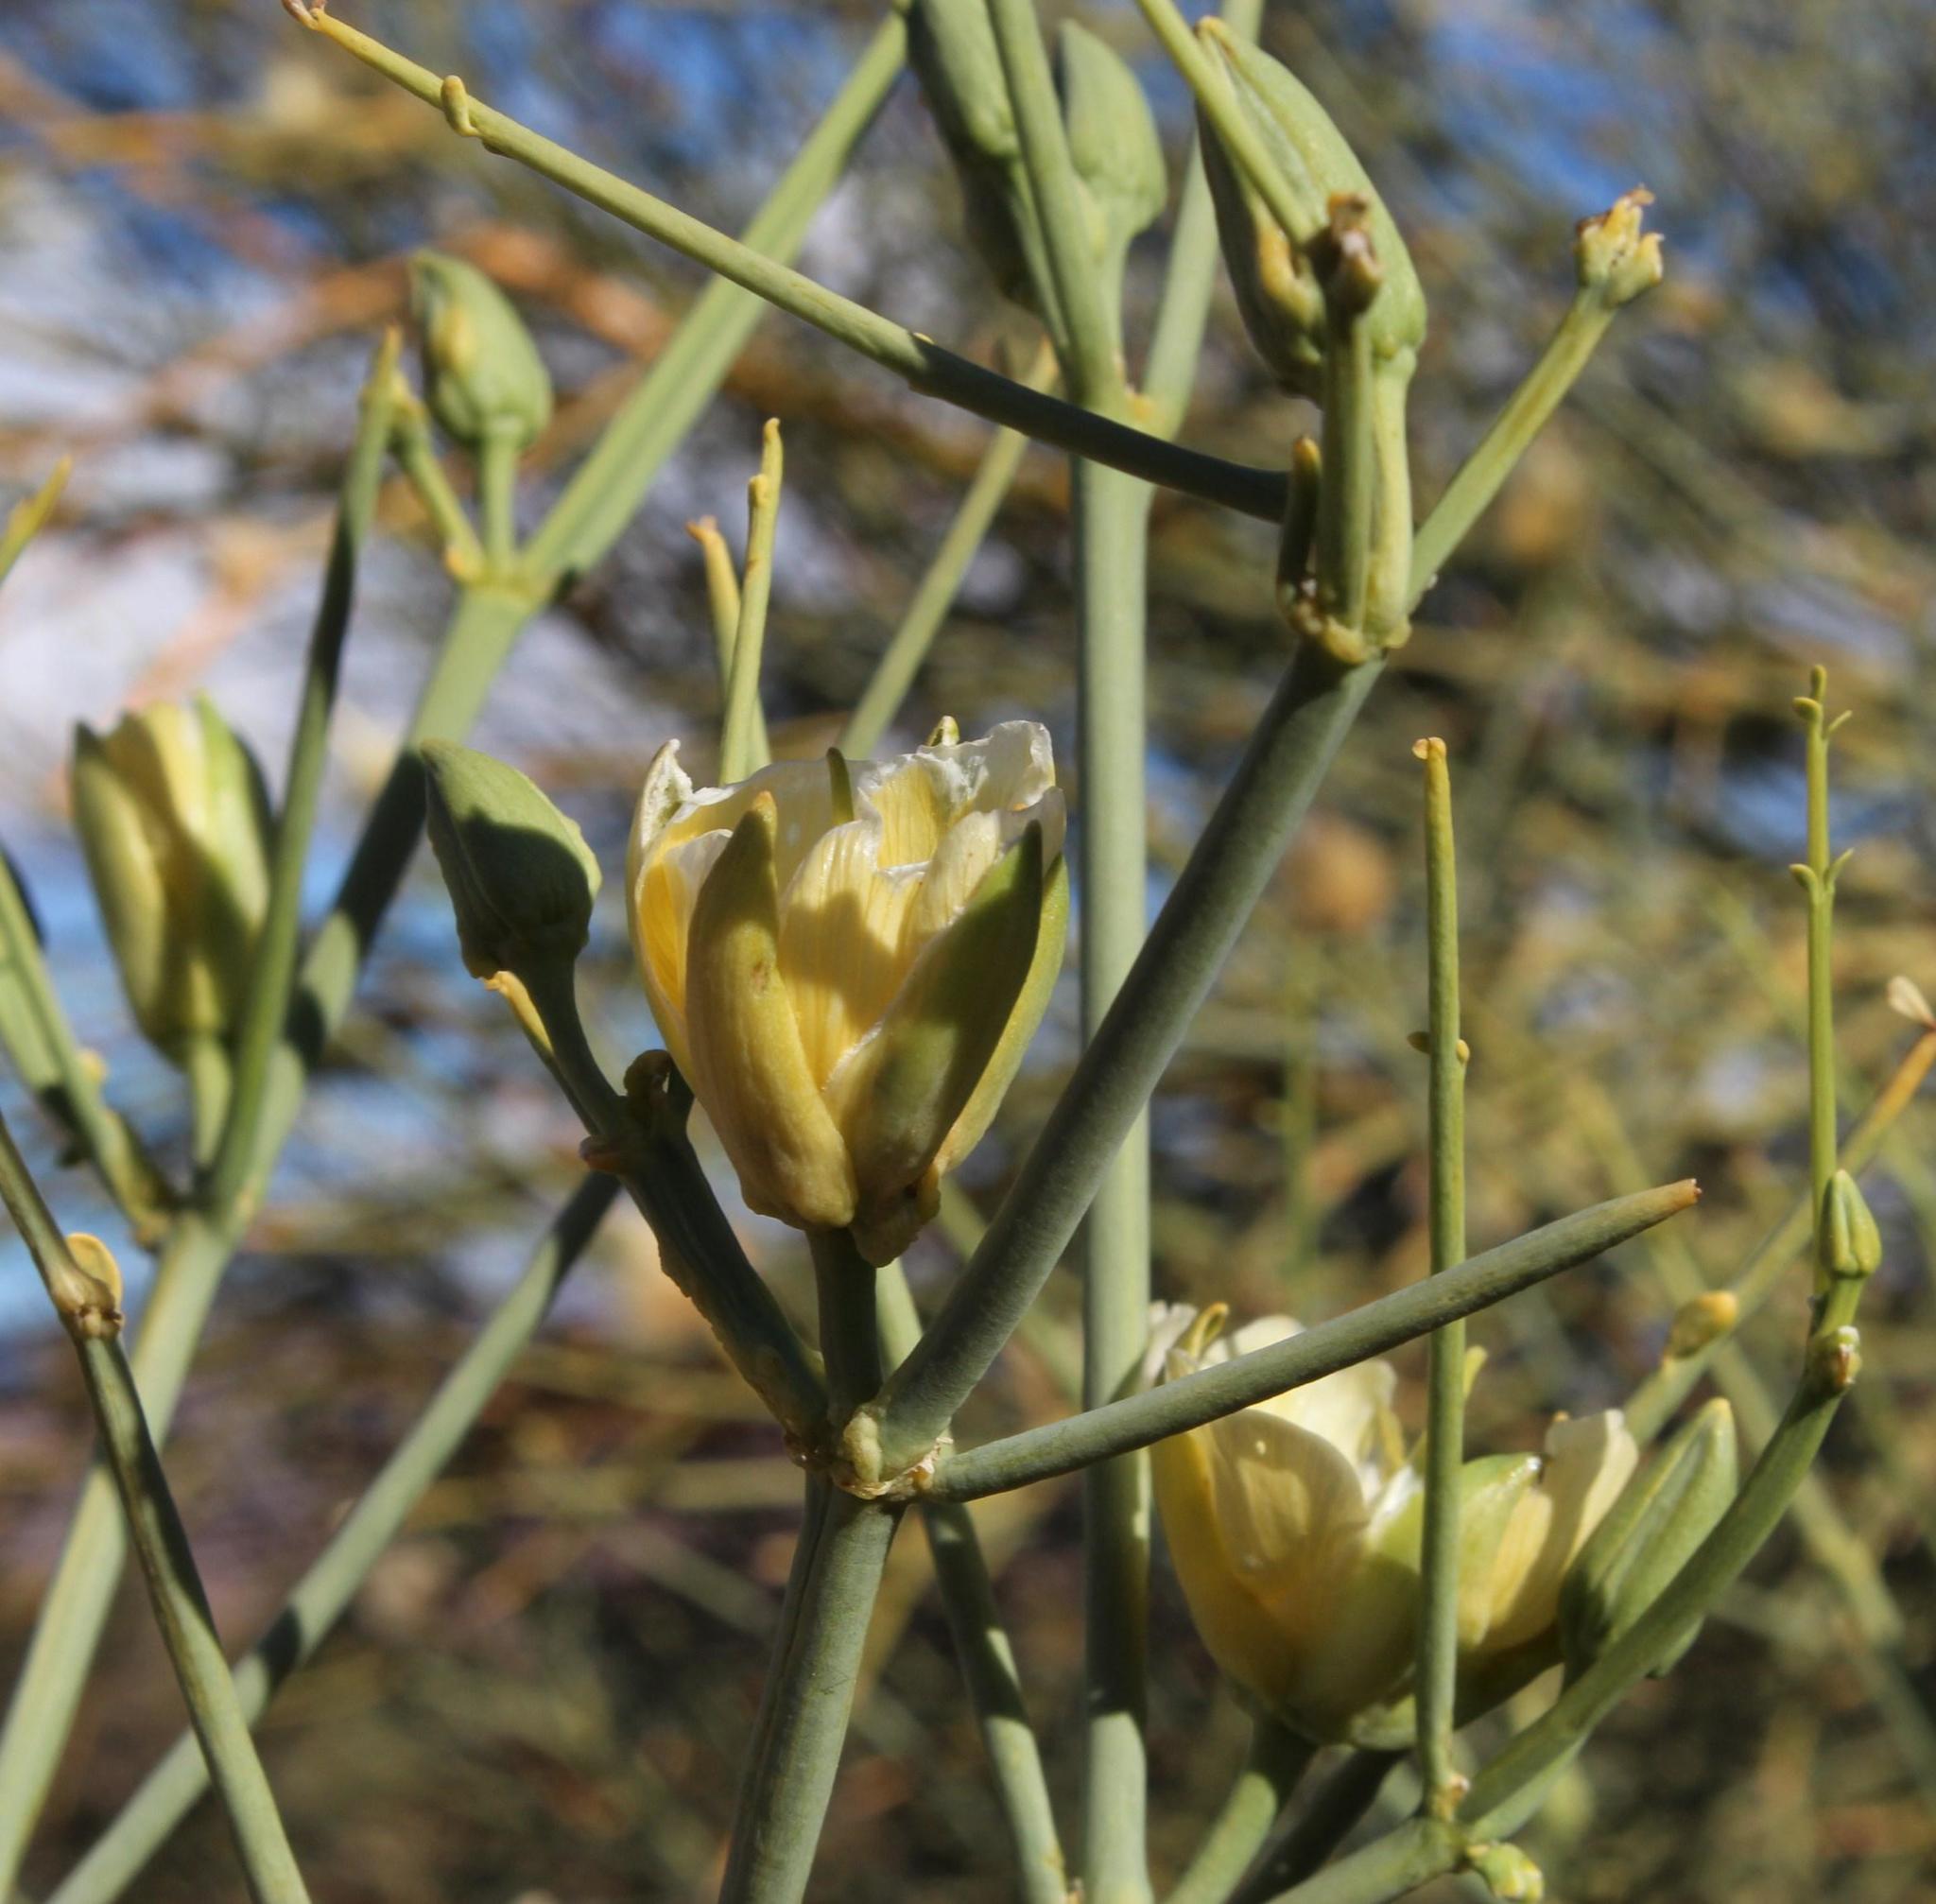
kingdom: Plantae
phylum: Tracheophyta
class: Magnoliopsida
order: Zygophyllales
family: Zygophyllaceae
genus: Sisyndite
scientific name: Sisyndite spartea
